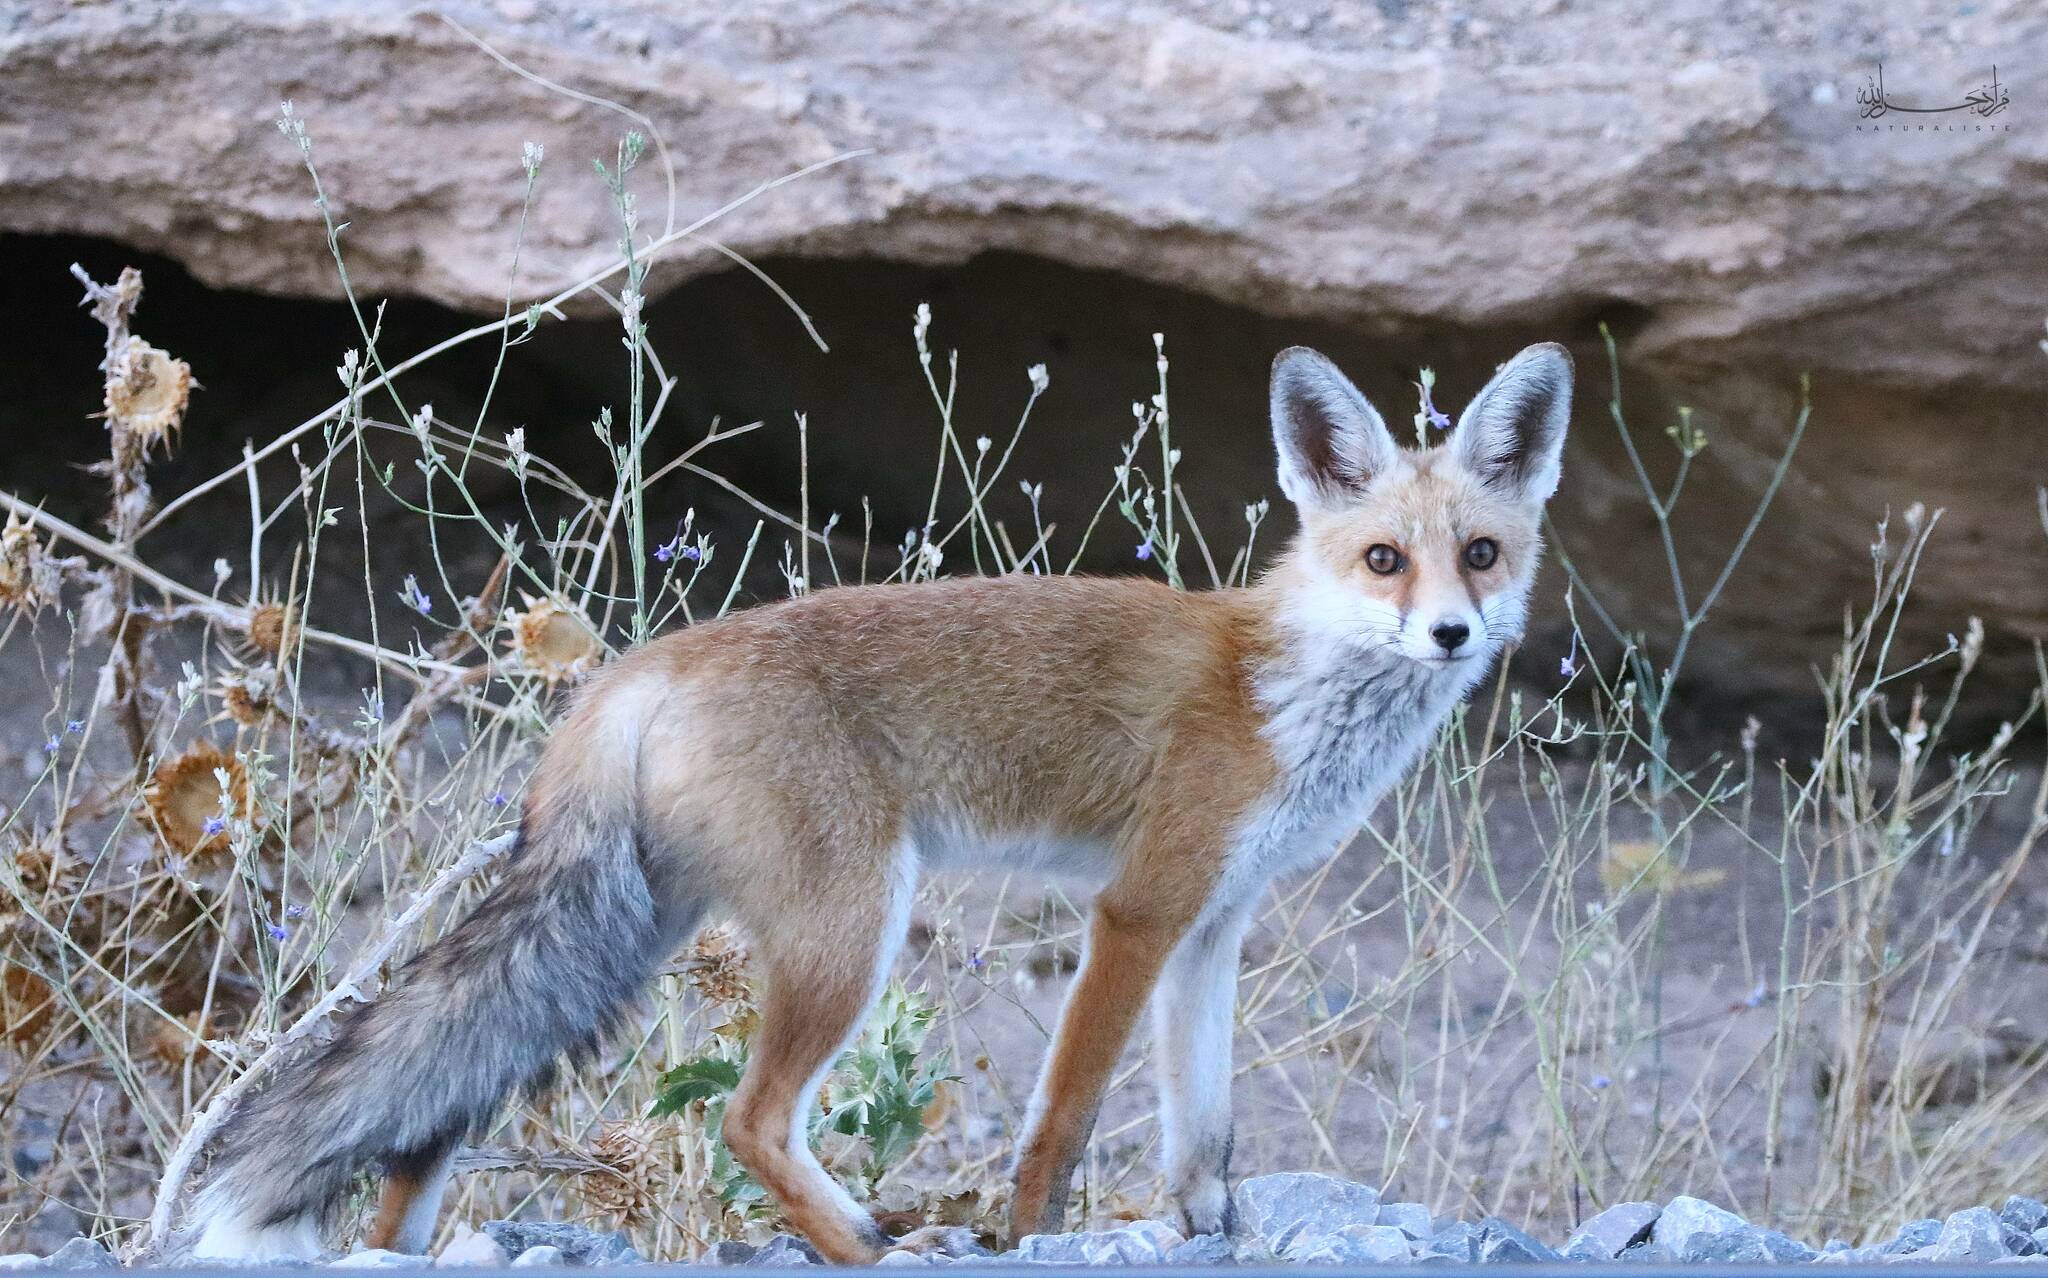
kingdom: Animalia
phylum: Chordata
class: Mammalia
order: Carnivora
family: Canidae
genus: Vulpes
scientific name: Vulpes vulpes
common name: Red fox
